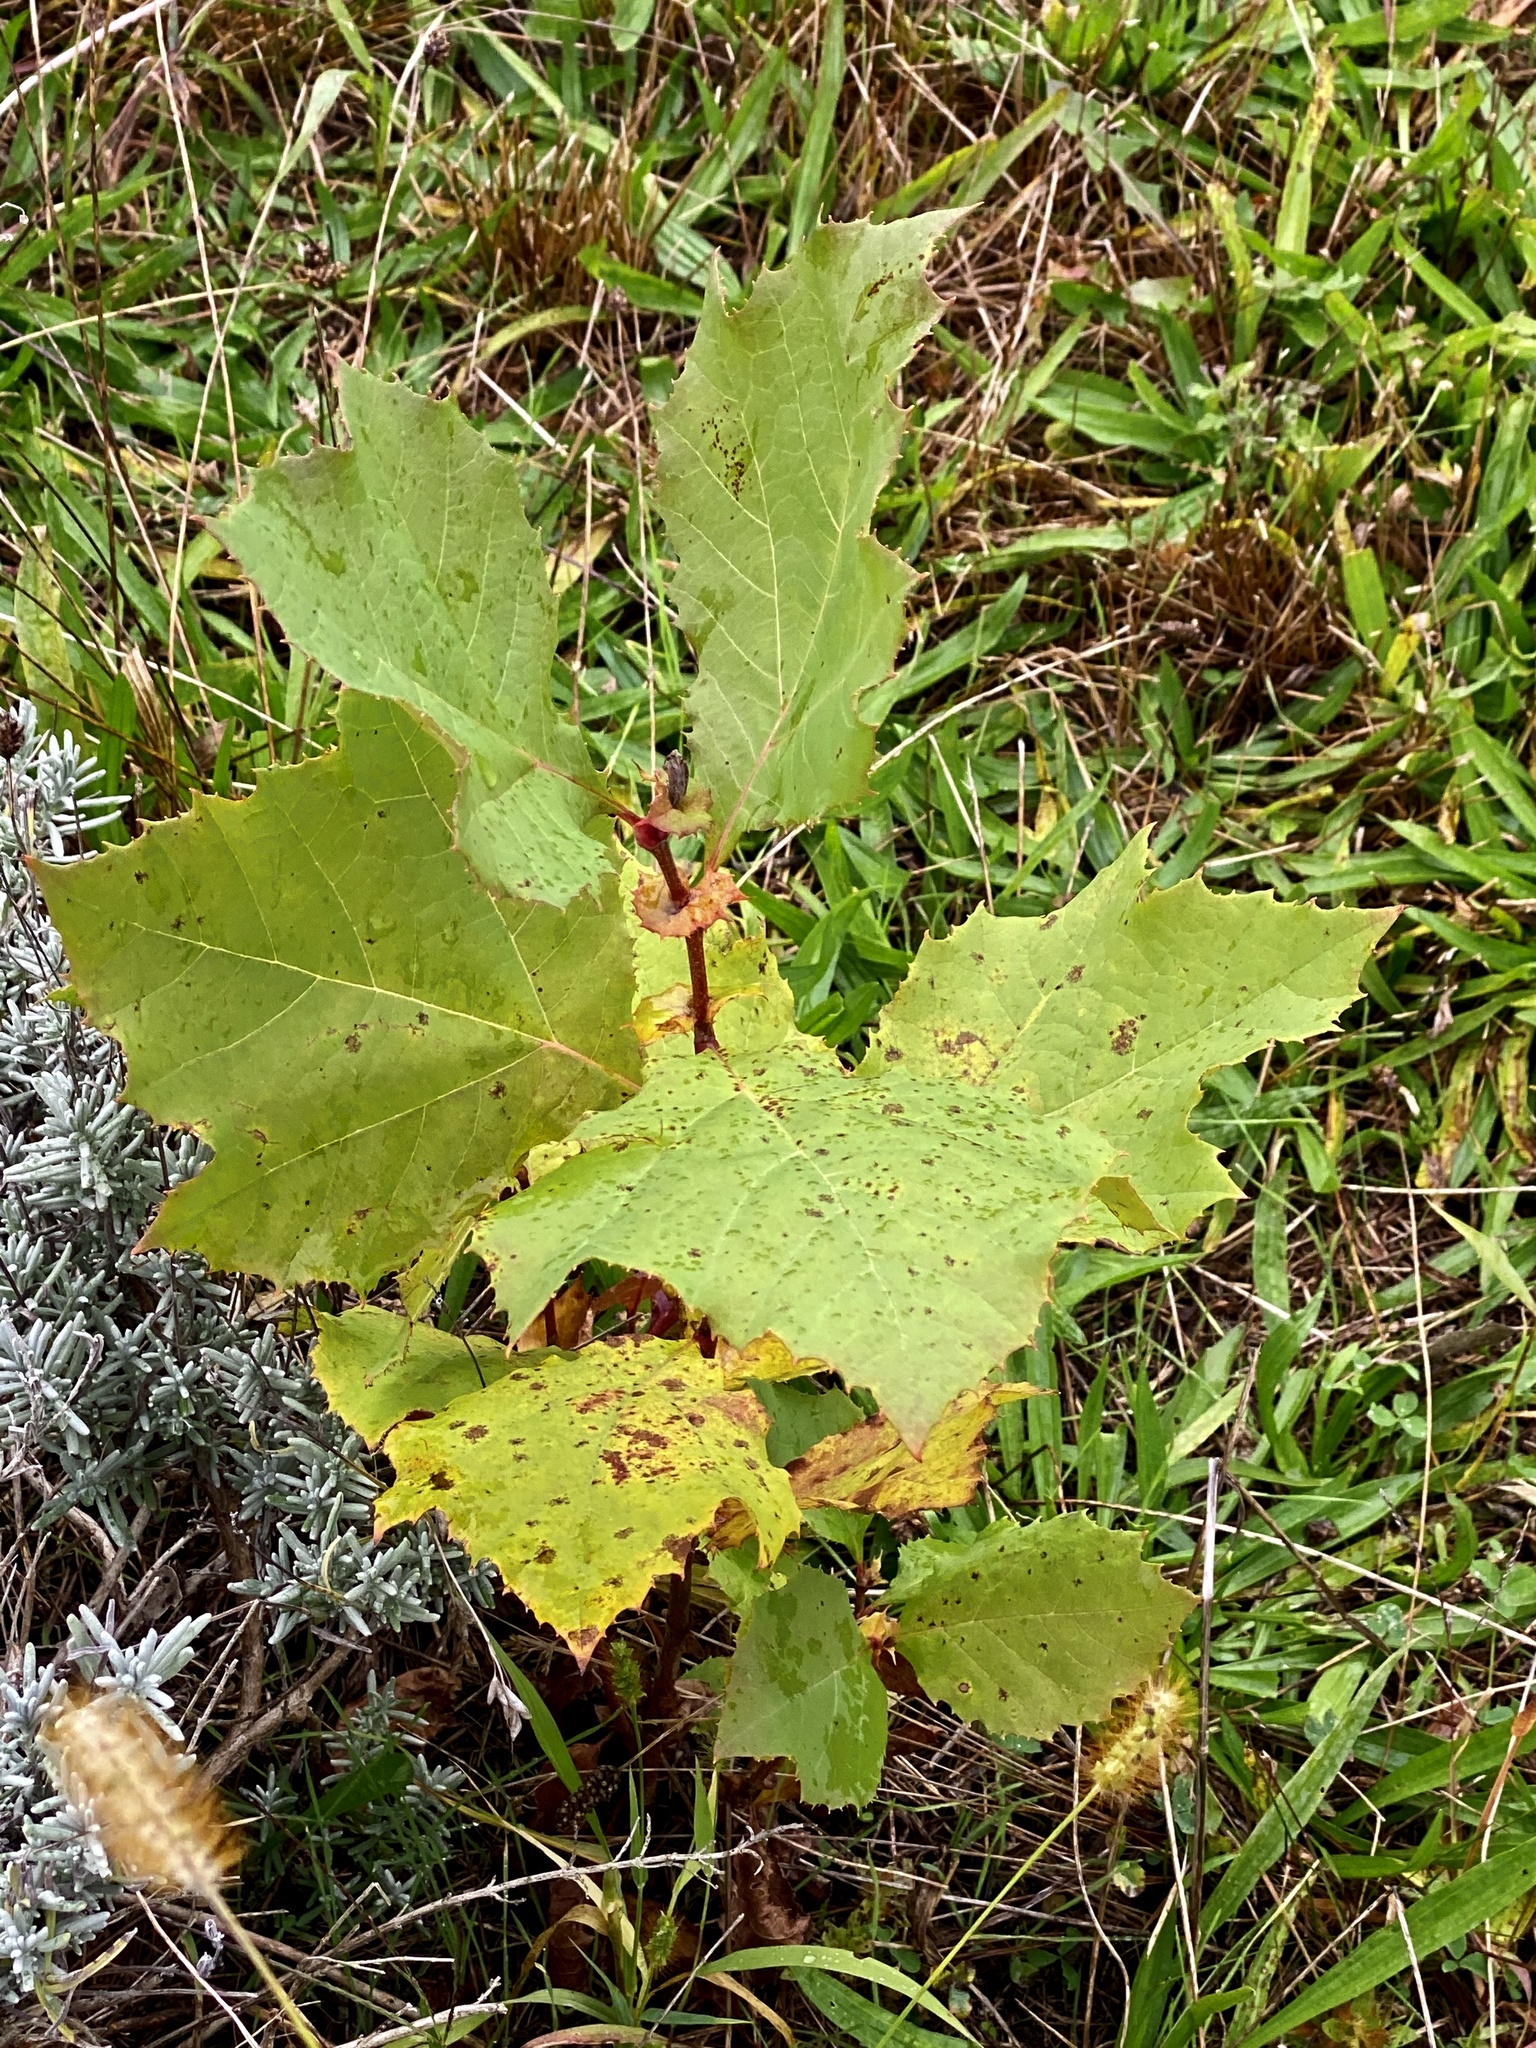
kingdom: Plantae
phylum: Tracheophyta
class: Magnoliopsida
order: Proteales
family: Platanaceae
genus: Platanus
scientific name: Platanus occidentalis
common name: American sycamore
